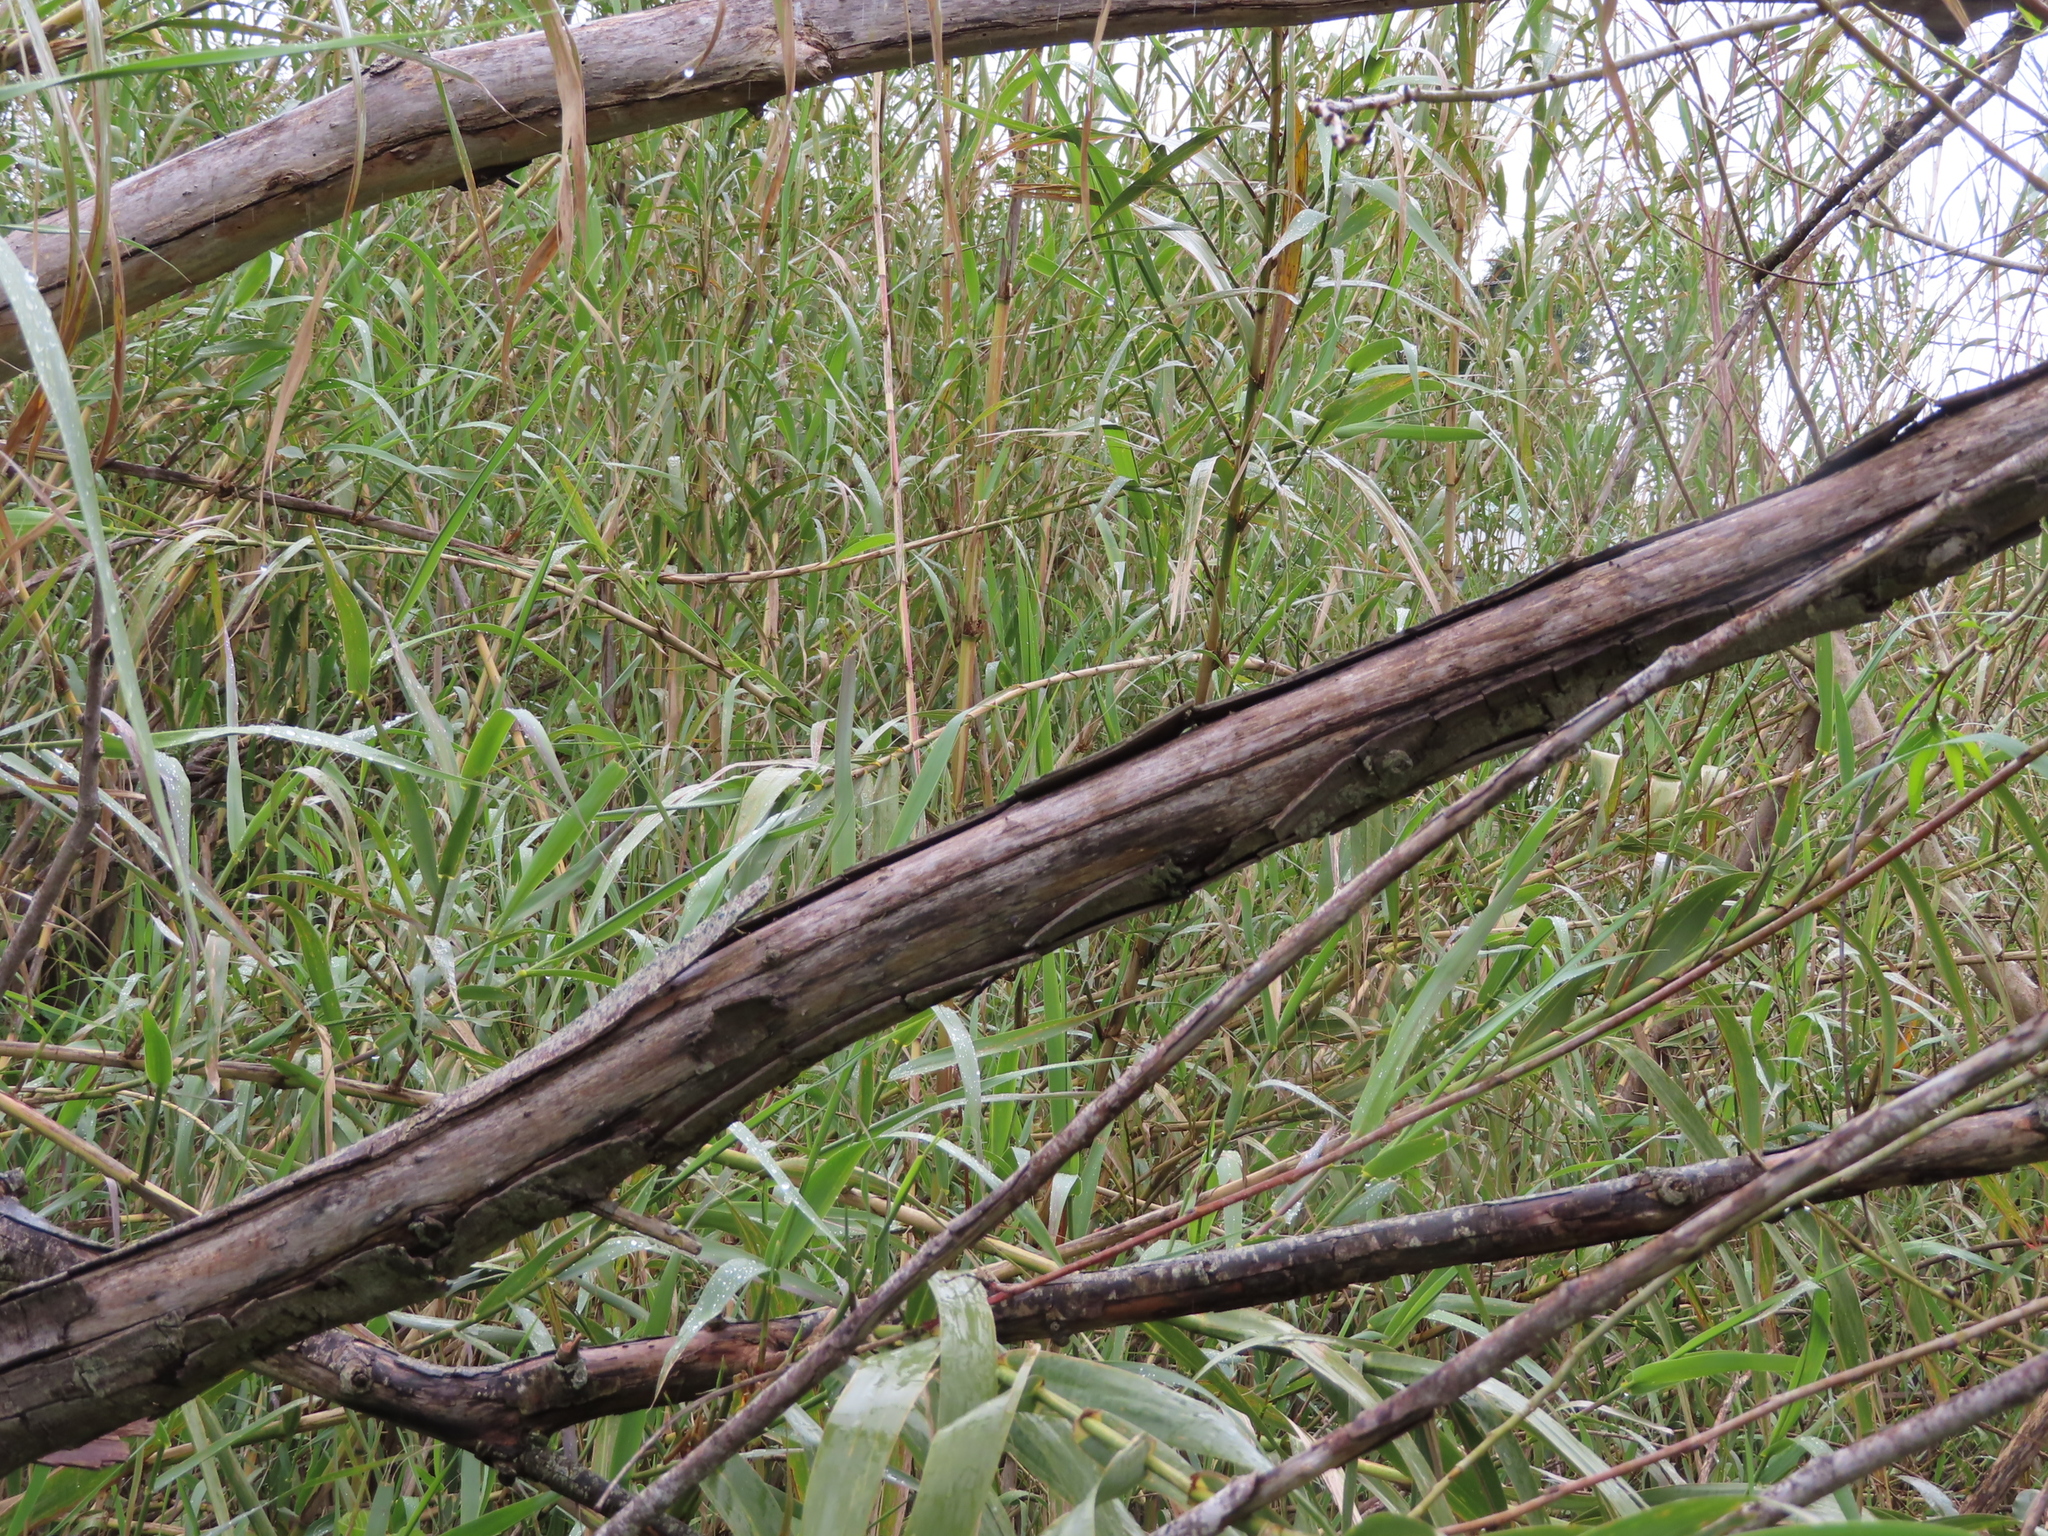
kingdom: Plantae
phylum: Tracheophyta
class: Liliopsida
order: Poales
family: Poaceae
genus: Arundo
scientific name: Arundo donax
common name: Giant reed
